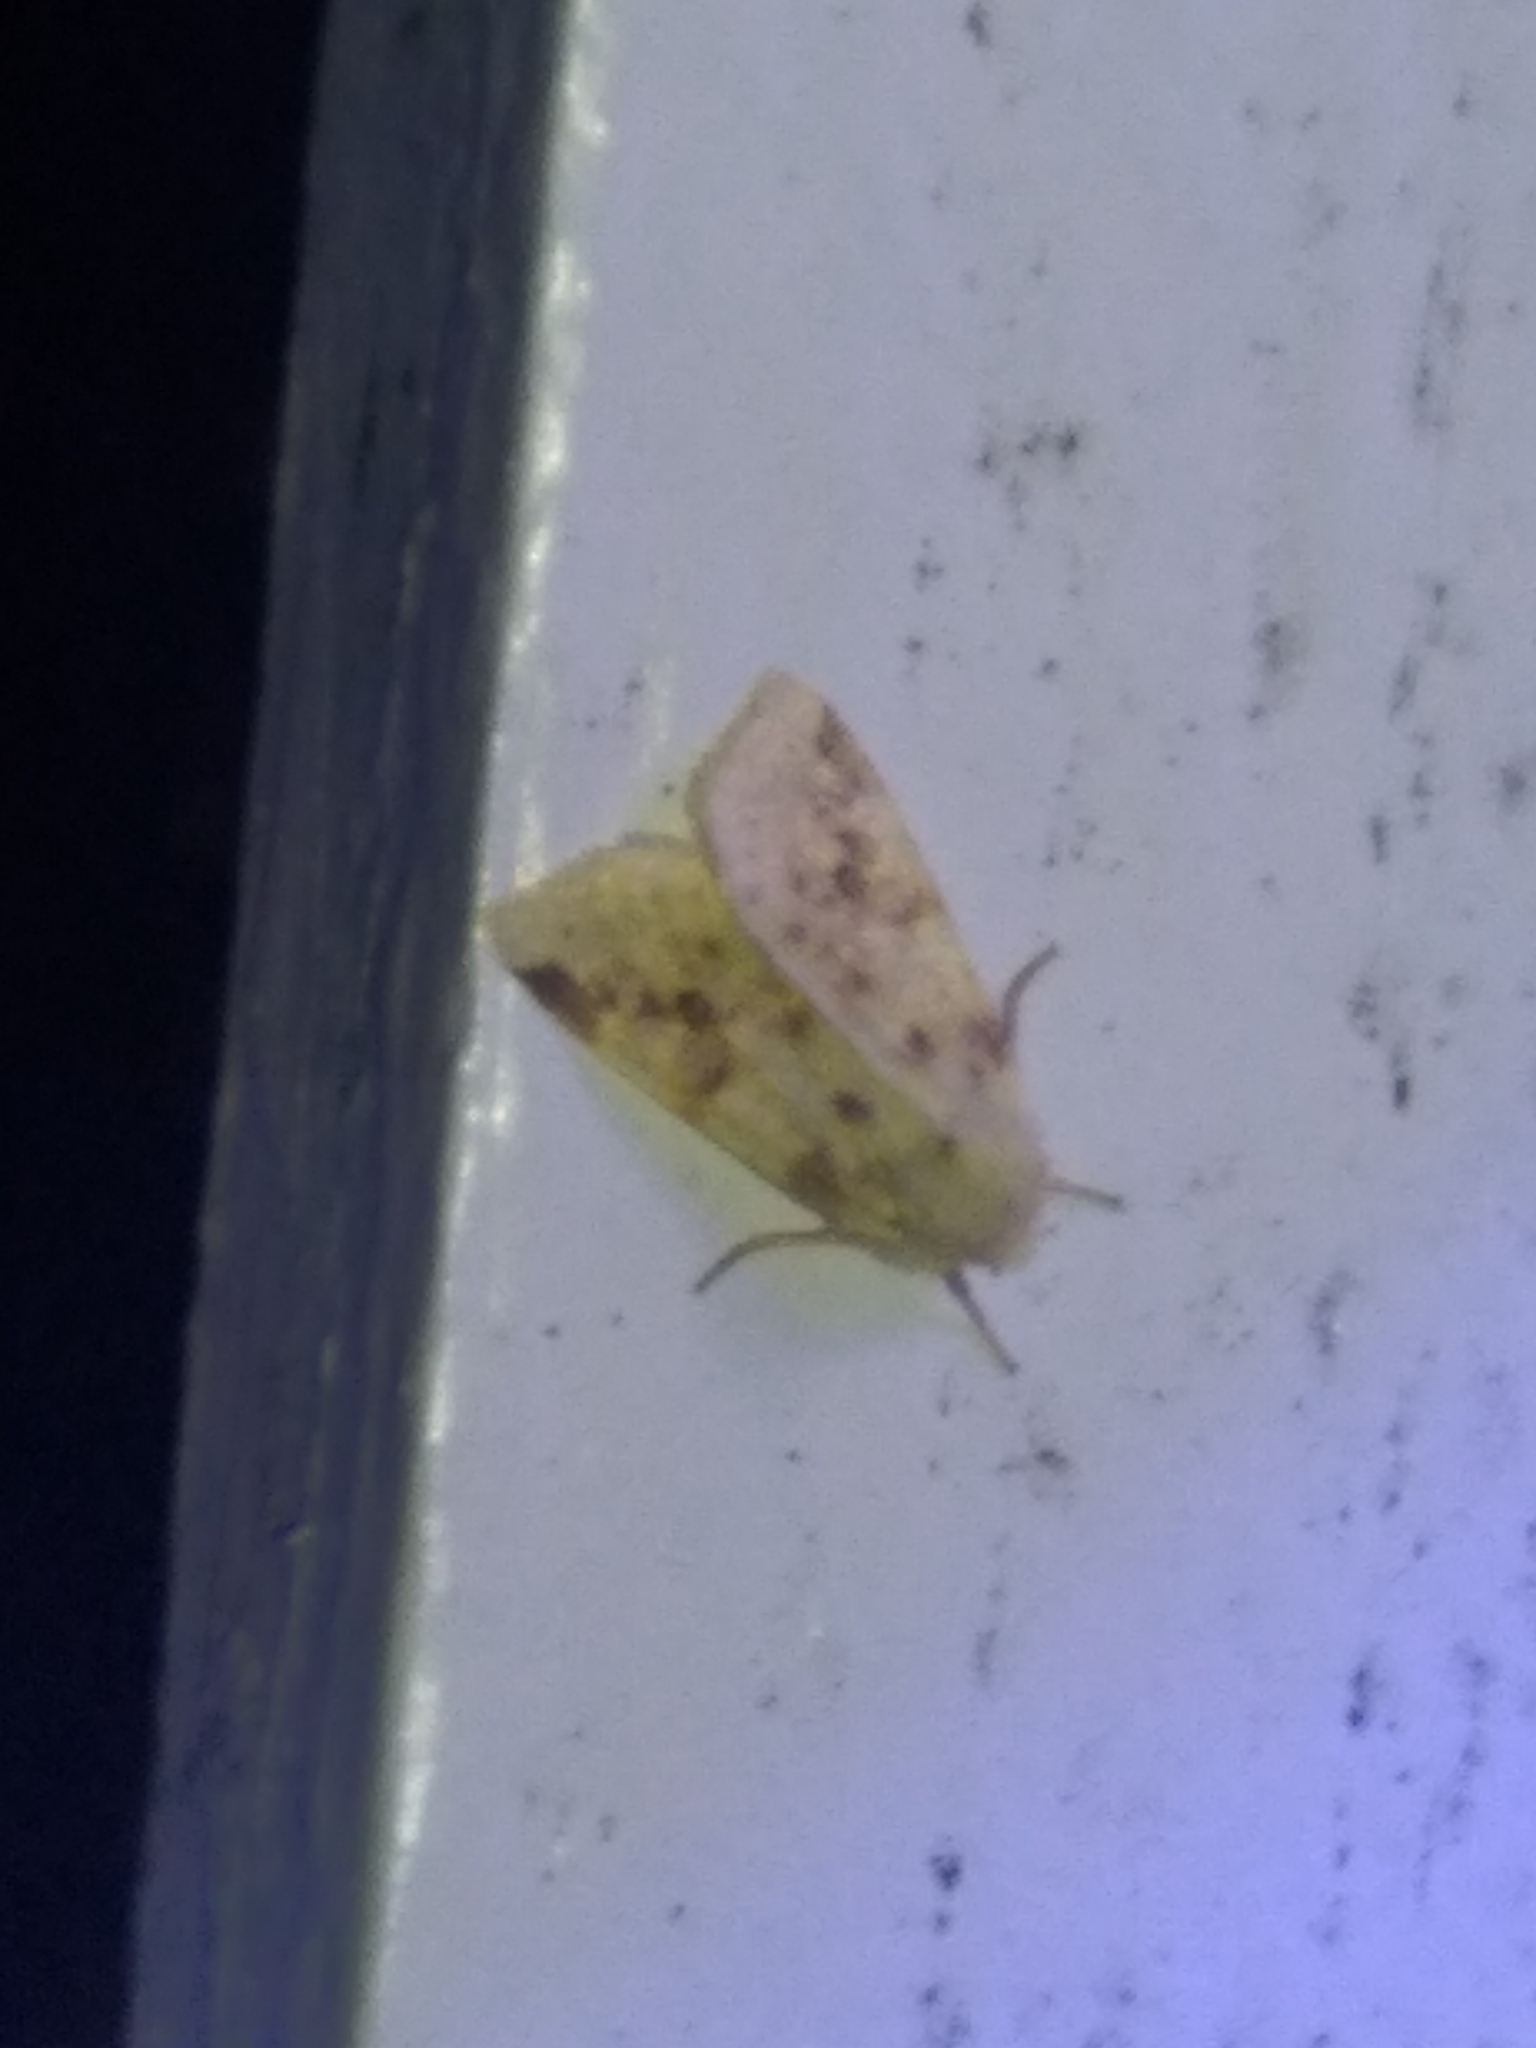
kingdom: Animalia
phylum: Arthropoda
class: Insecta
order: Lepidoptera
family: Noctuidae
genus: Xanthia
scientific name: Xanthia icteritia
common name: The sallow
